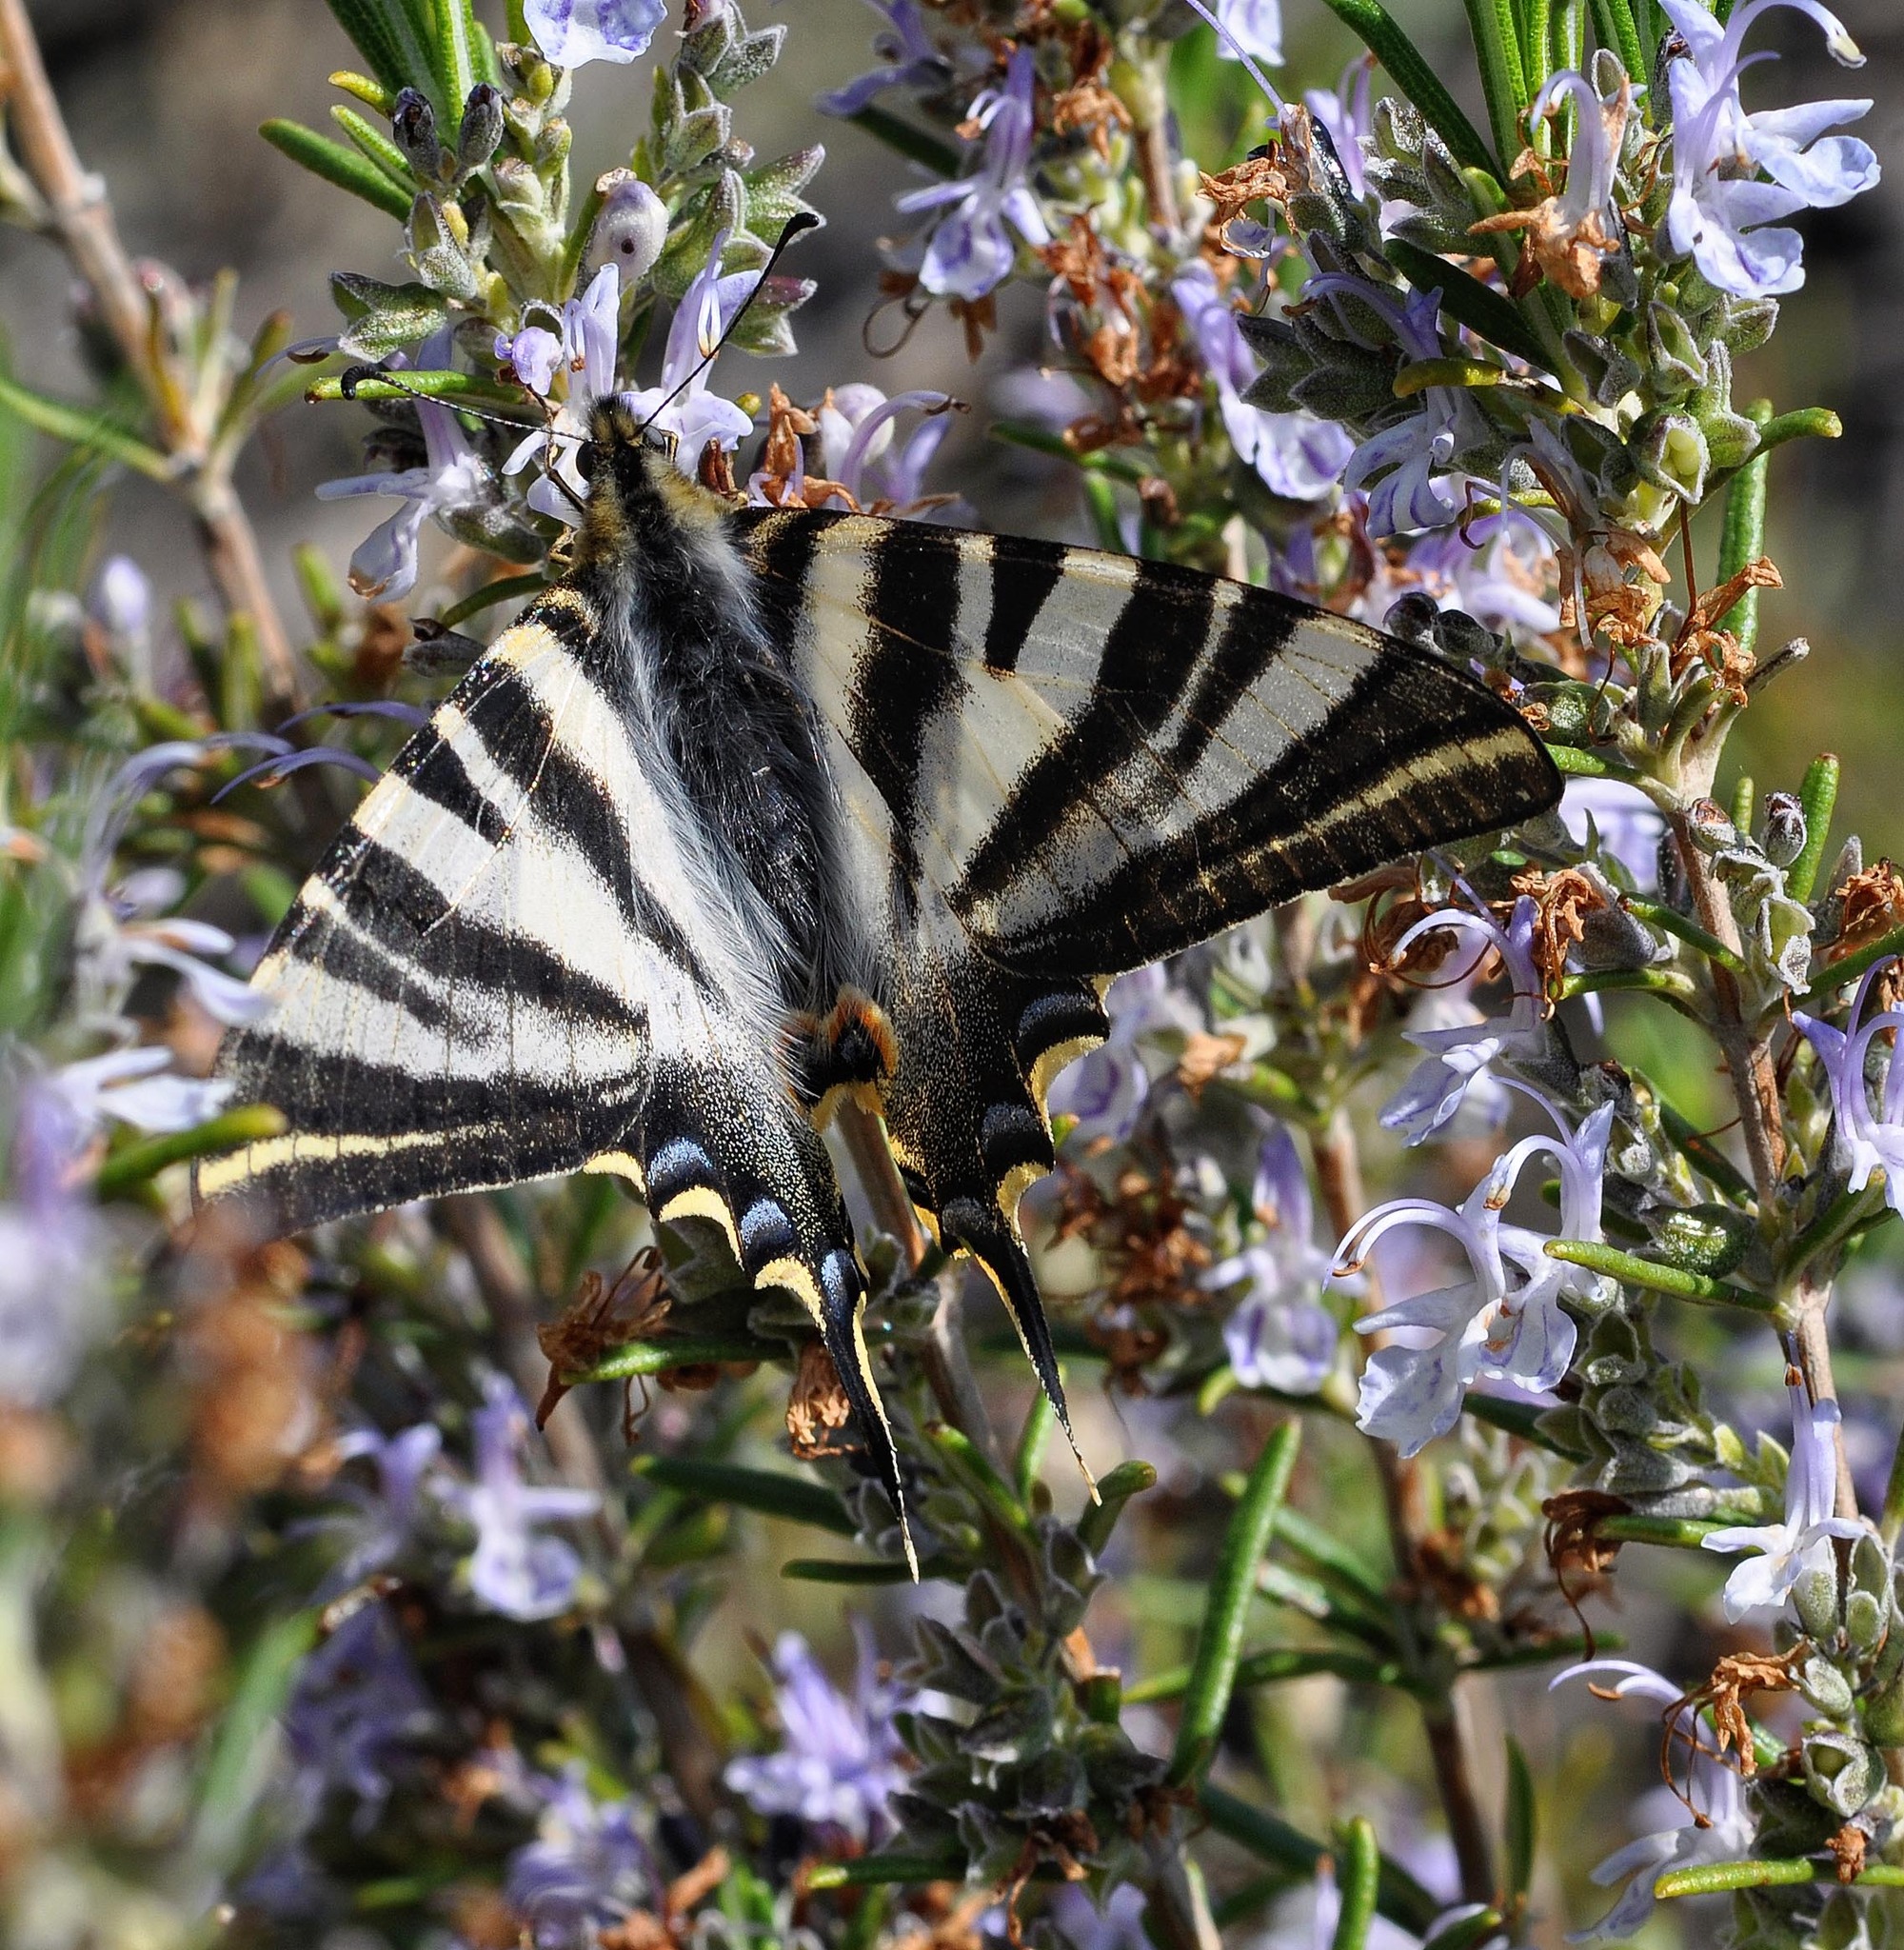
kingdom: Animalia
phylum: Arthropoda
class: Insecta
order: Lepidoptera
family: Papilionidae
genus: Iphiclides
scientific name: Iphiclides feisthamelii
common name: Iberian scarce swallowtail
